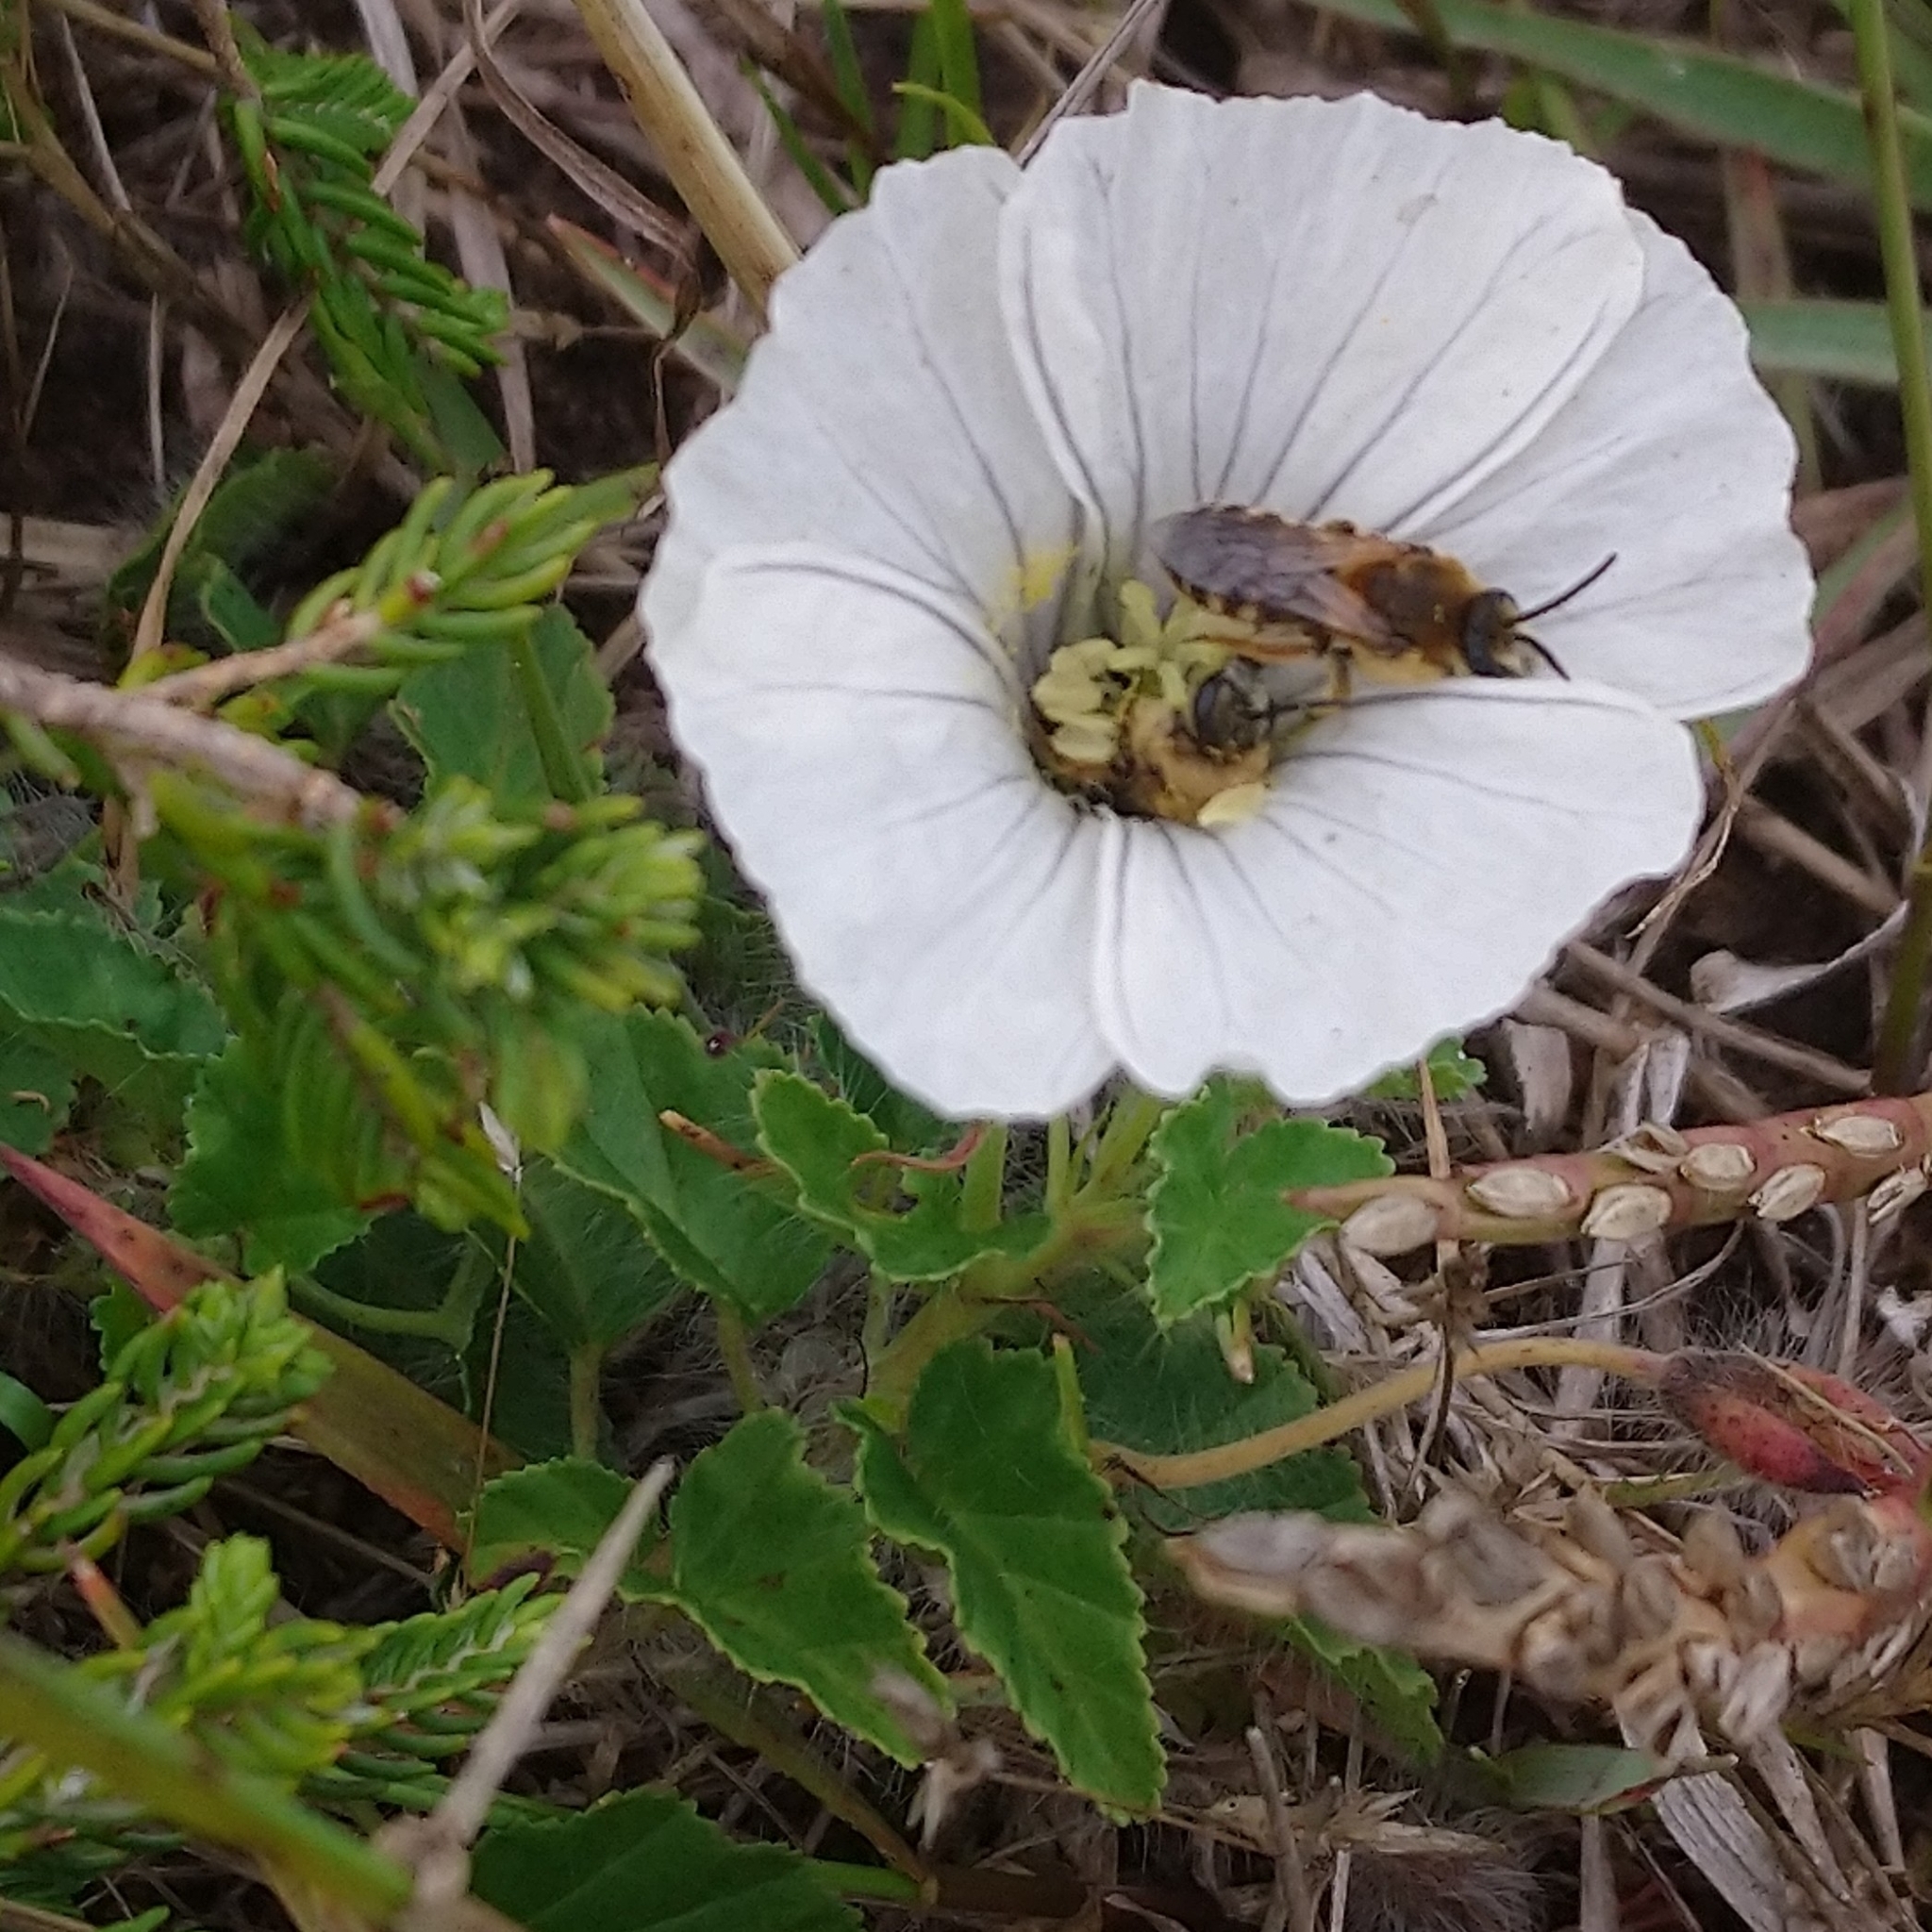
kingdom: Plantae
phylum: Tracheophyta
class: Magnoliopsida
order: Geraniales
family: Geraniaceae
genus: Monsonia
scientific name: Monsonia emarginata
